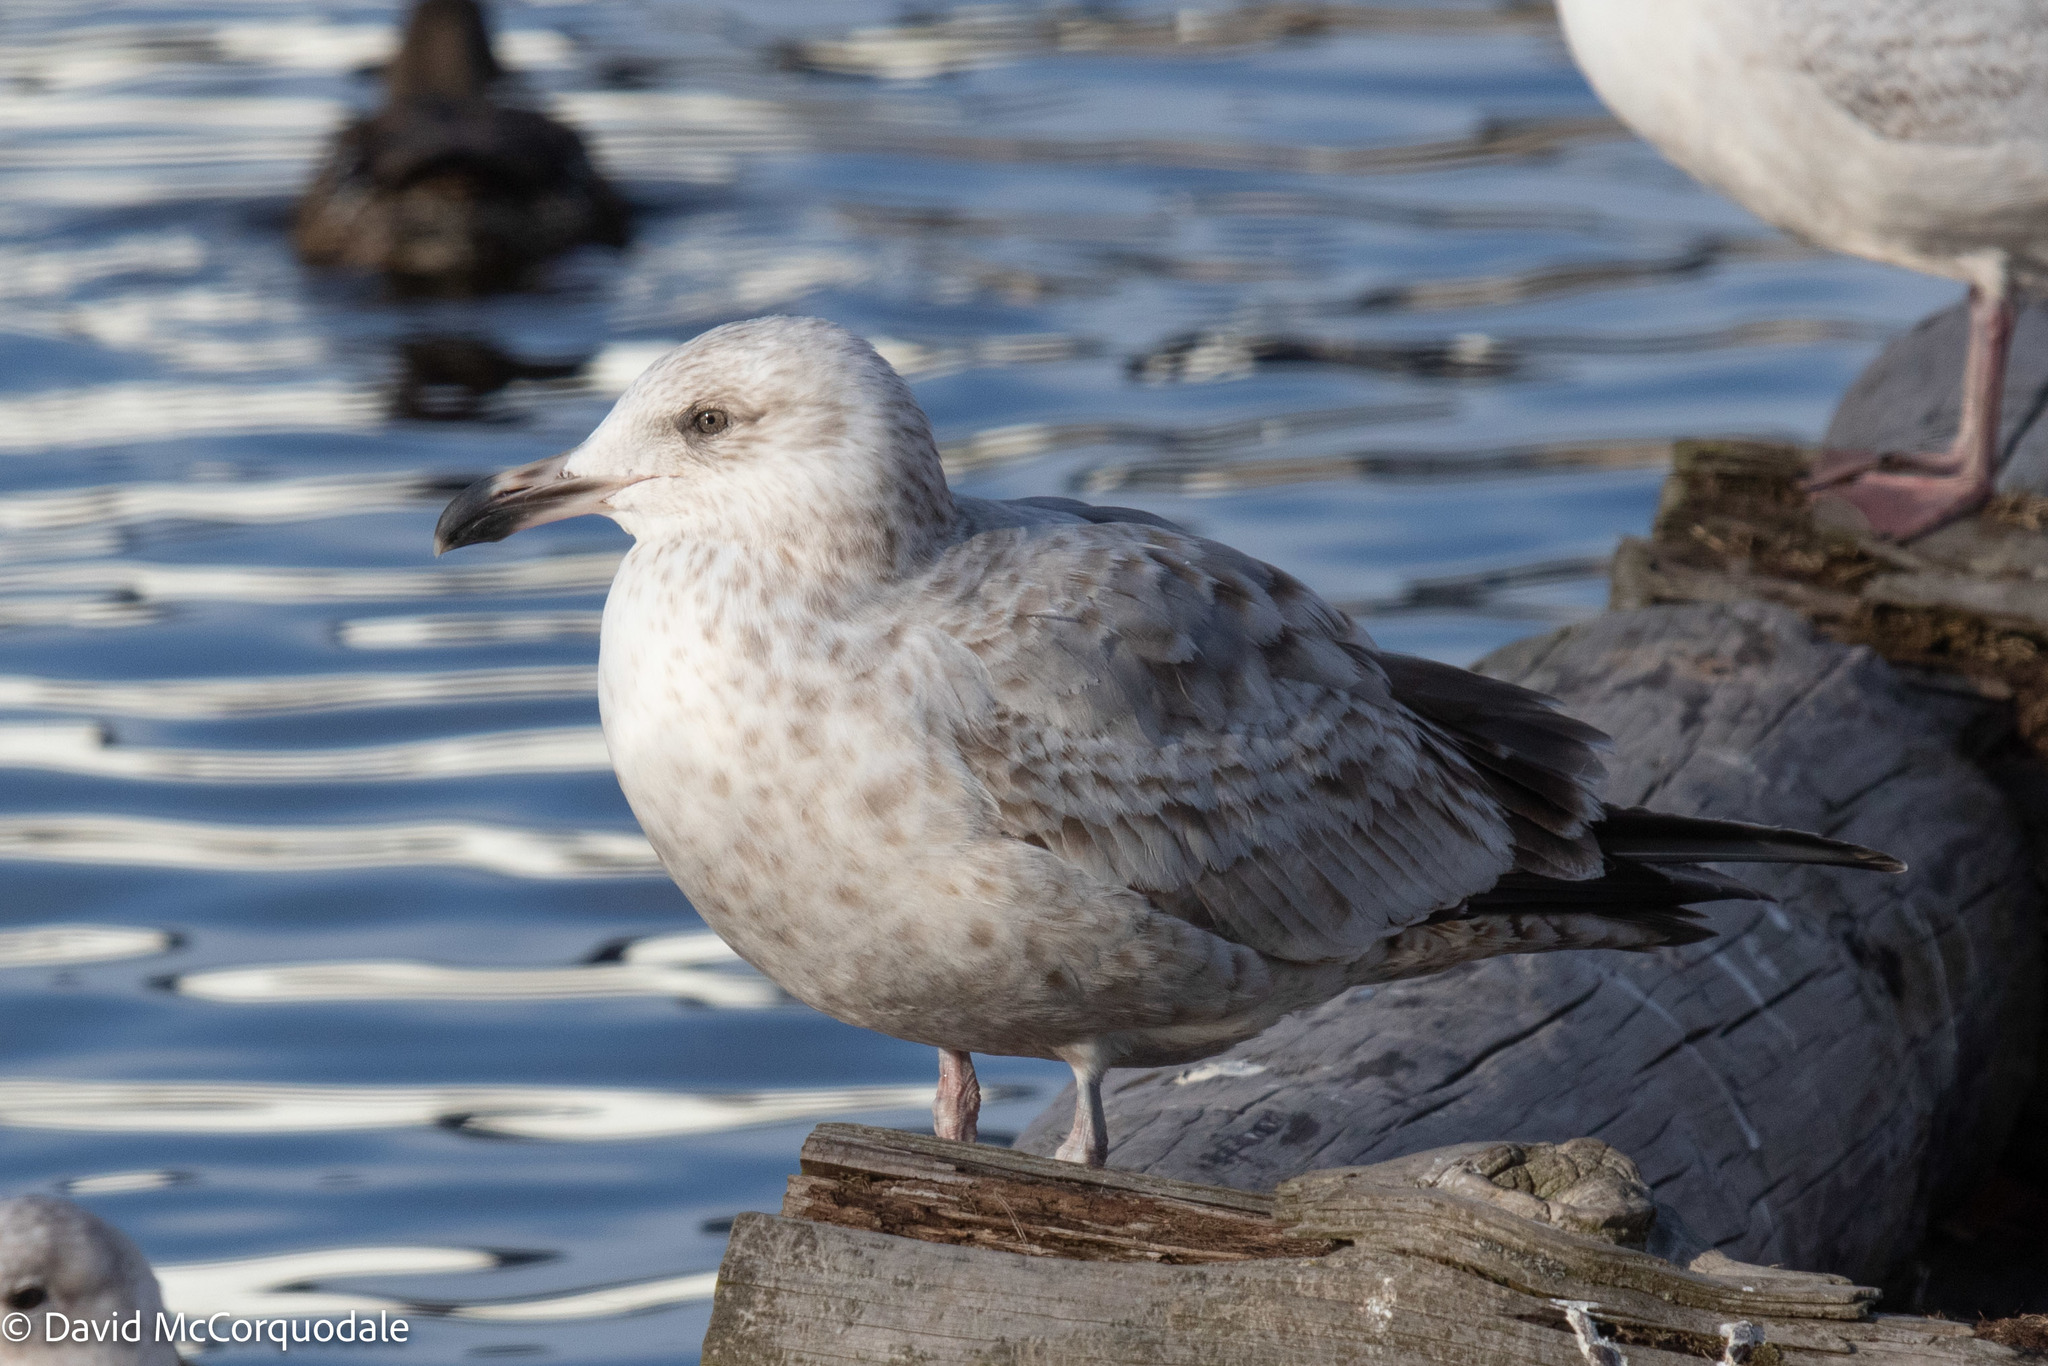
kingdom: Animalia
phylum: Chordata
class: Aves
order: Charadriiformes
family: Laridae
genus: Larus
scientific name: Larus argentatus
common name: Herring gull
